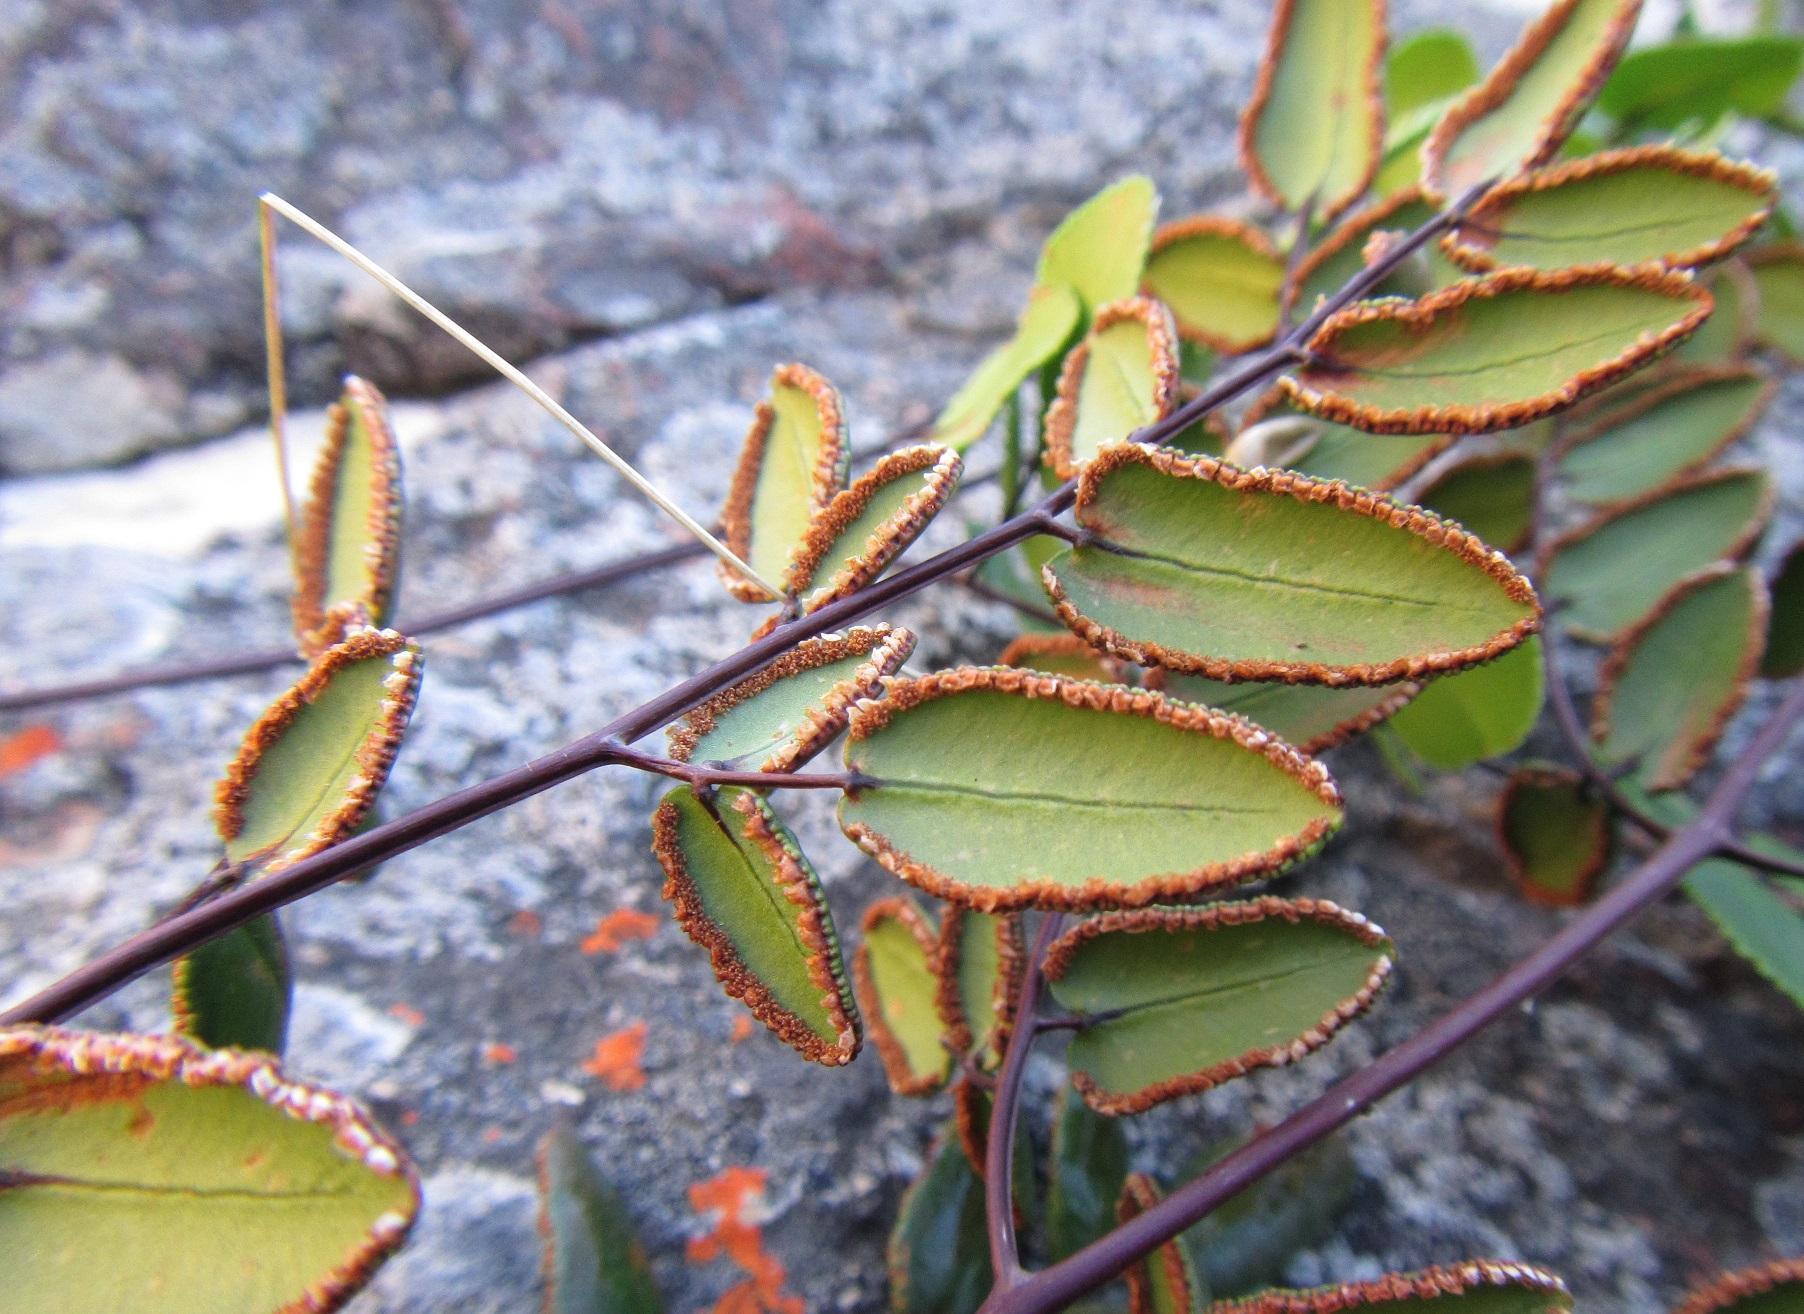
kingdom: Plantae
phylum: Tracheophyta
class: Polypodiopsida
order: Polypodiales
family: Pteridaceae
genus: Pellaea
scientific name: Pellaea pteroides
